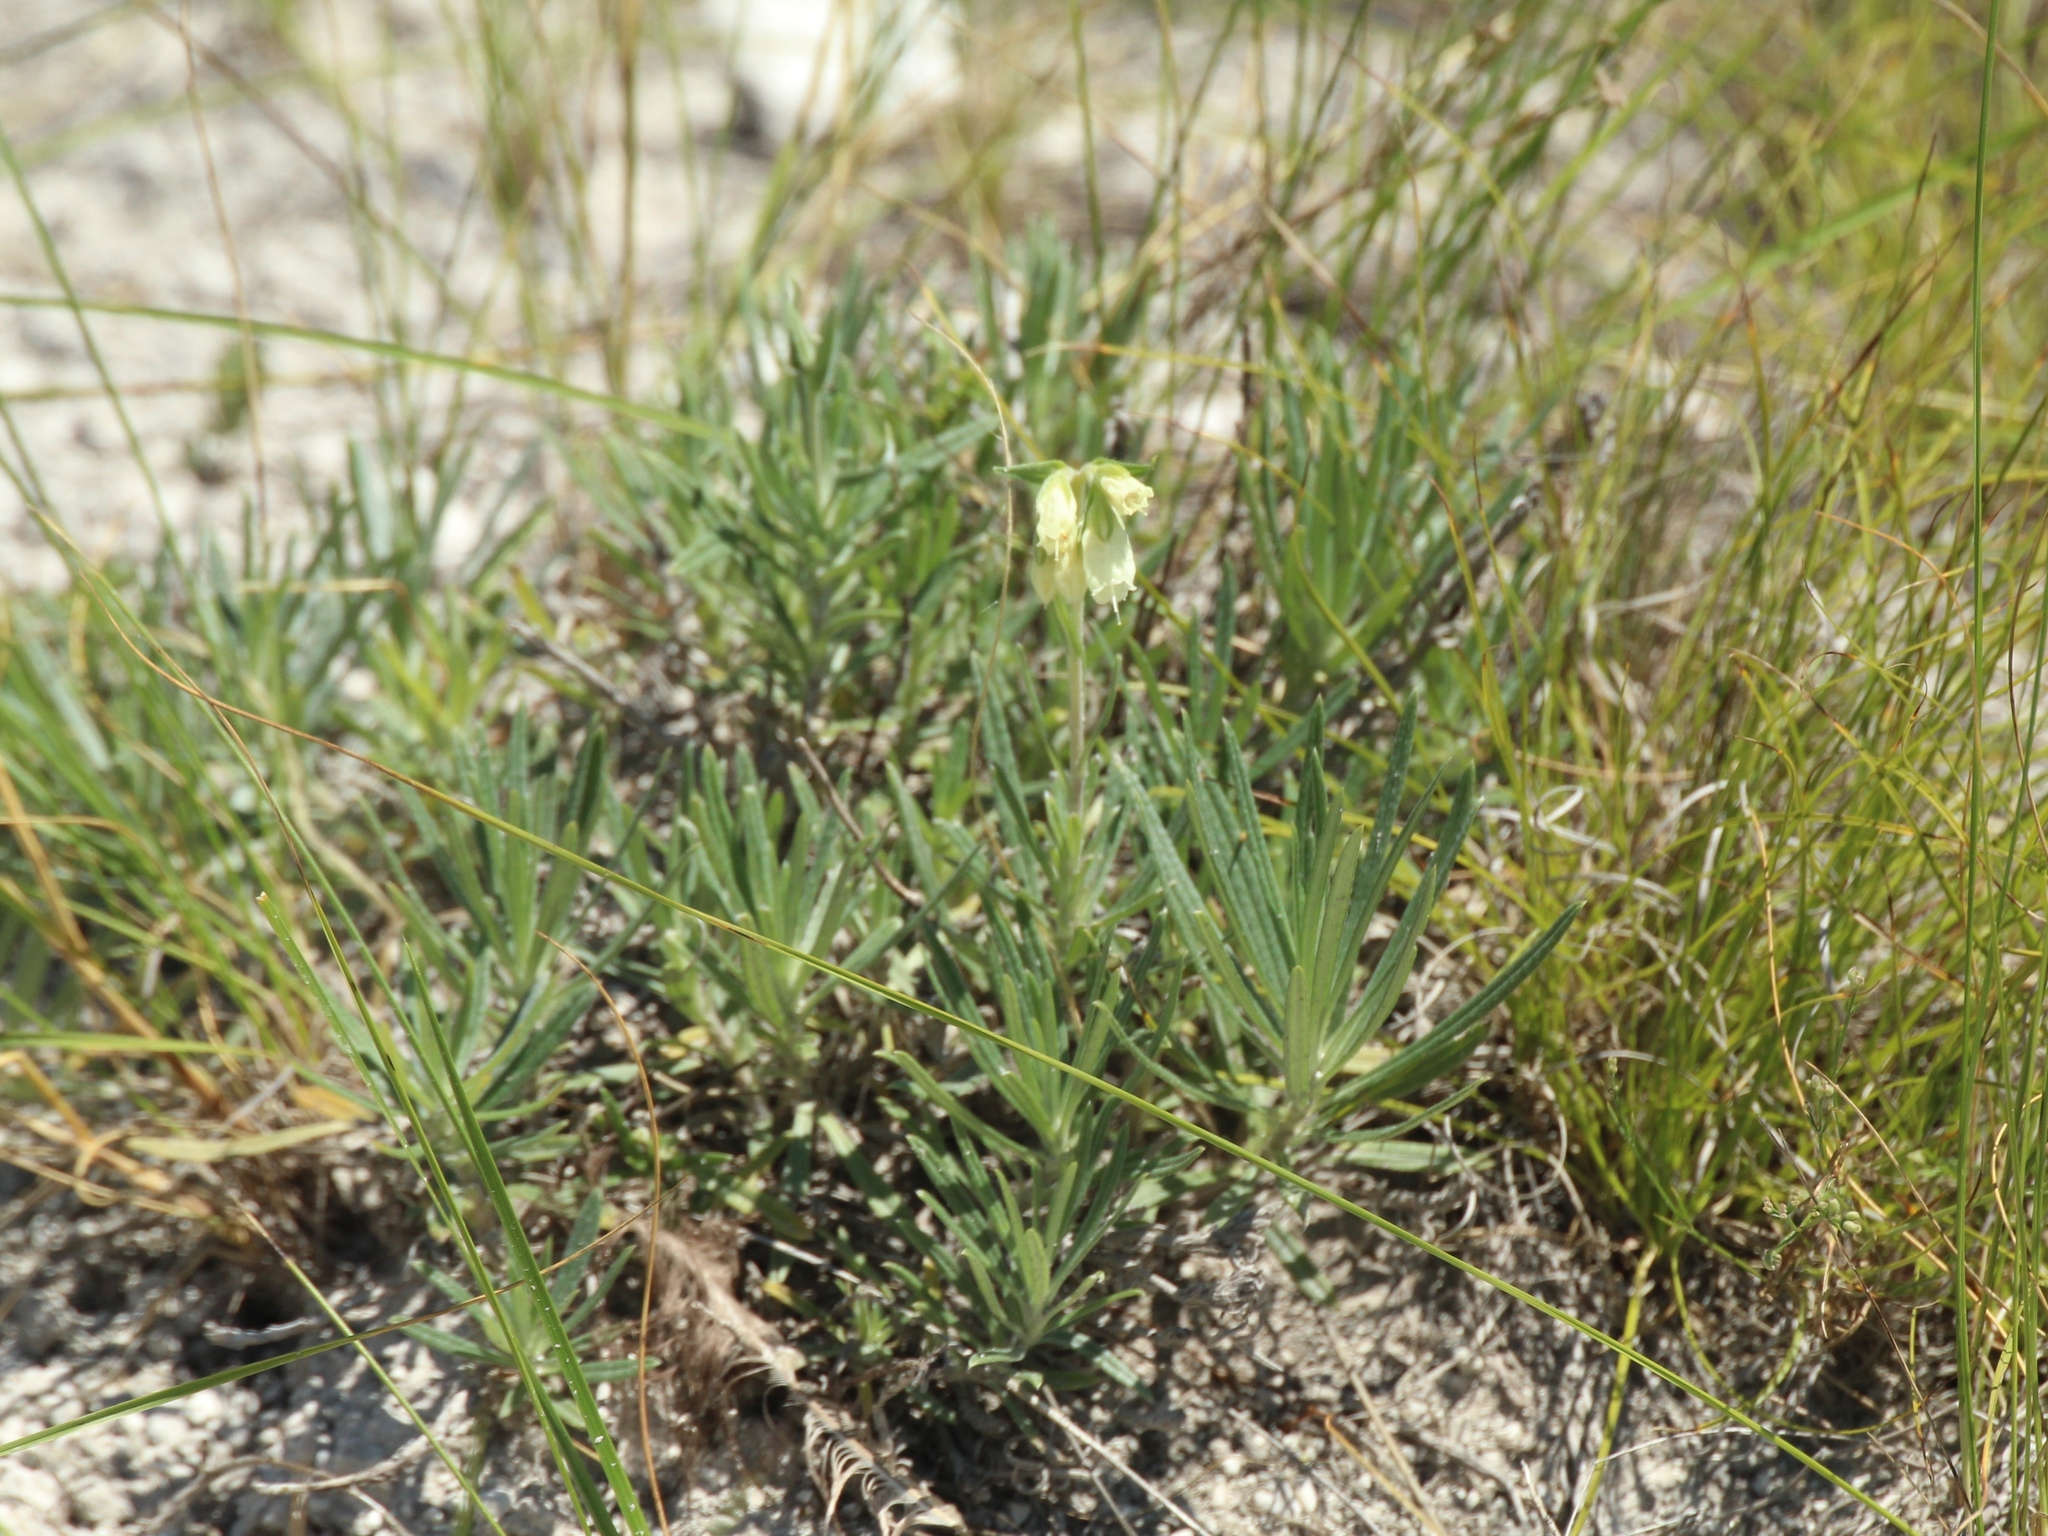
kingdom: Plantae
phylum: Tracheophyta
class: Magnoliopsida
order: Boraginales
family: Boraginaceae
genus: Onosma
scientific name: Onosma simplicissima
